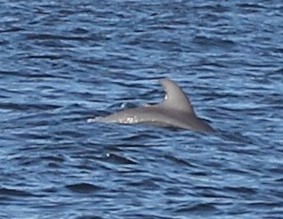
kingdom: Animalia
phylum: Chordata
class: Mammalia
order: Cetacea
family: Delphinidae
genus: Tursiops
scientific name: Tursiops truncatus
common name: Bottlenose dolphin
